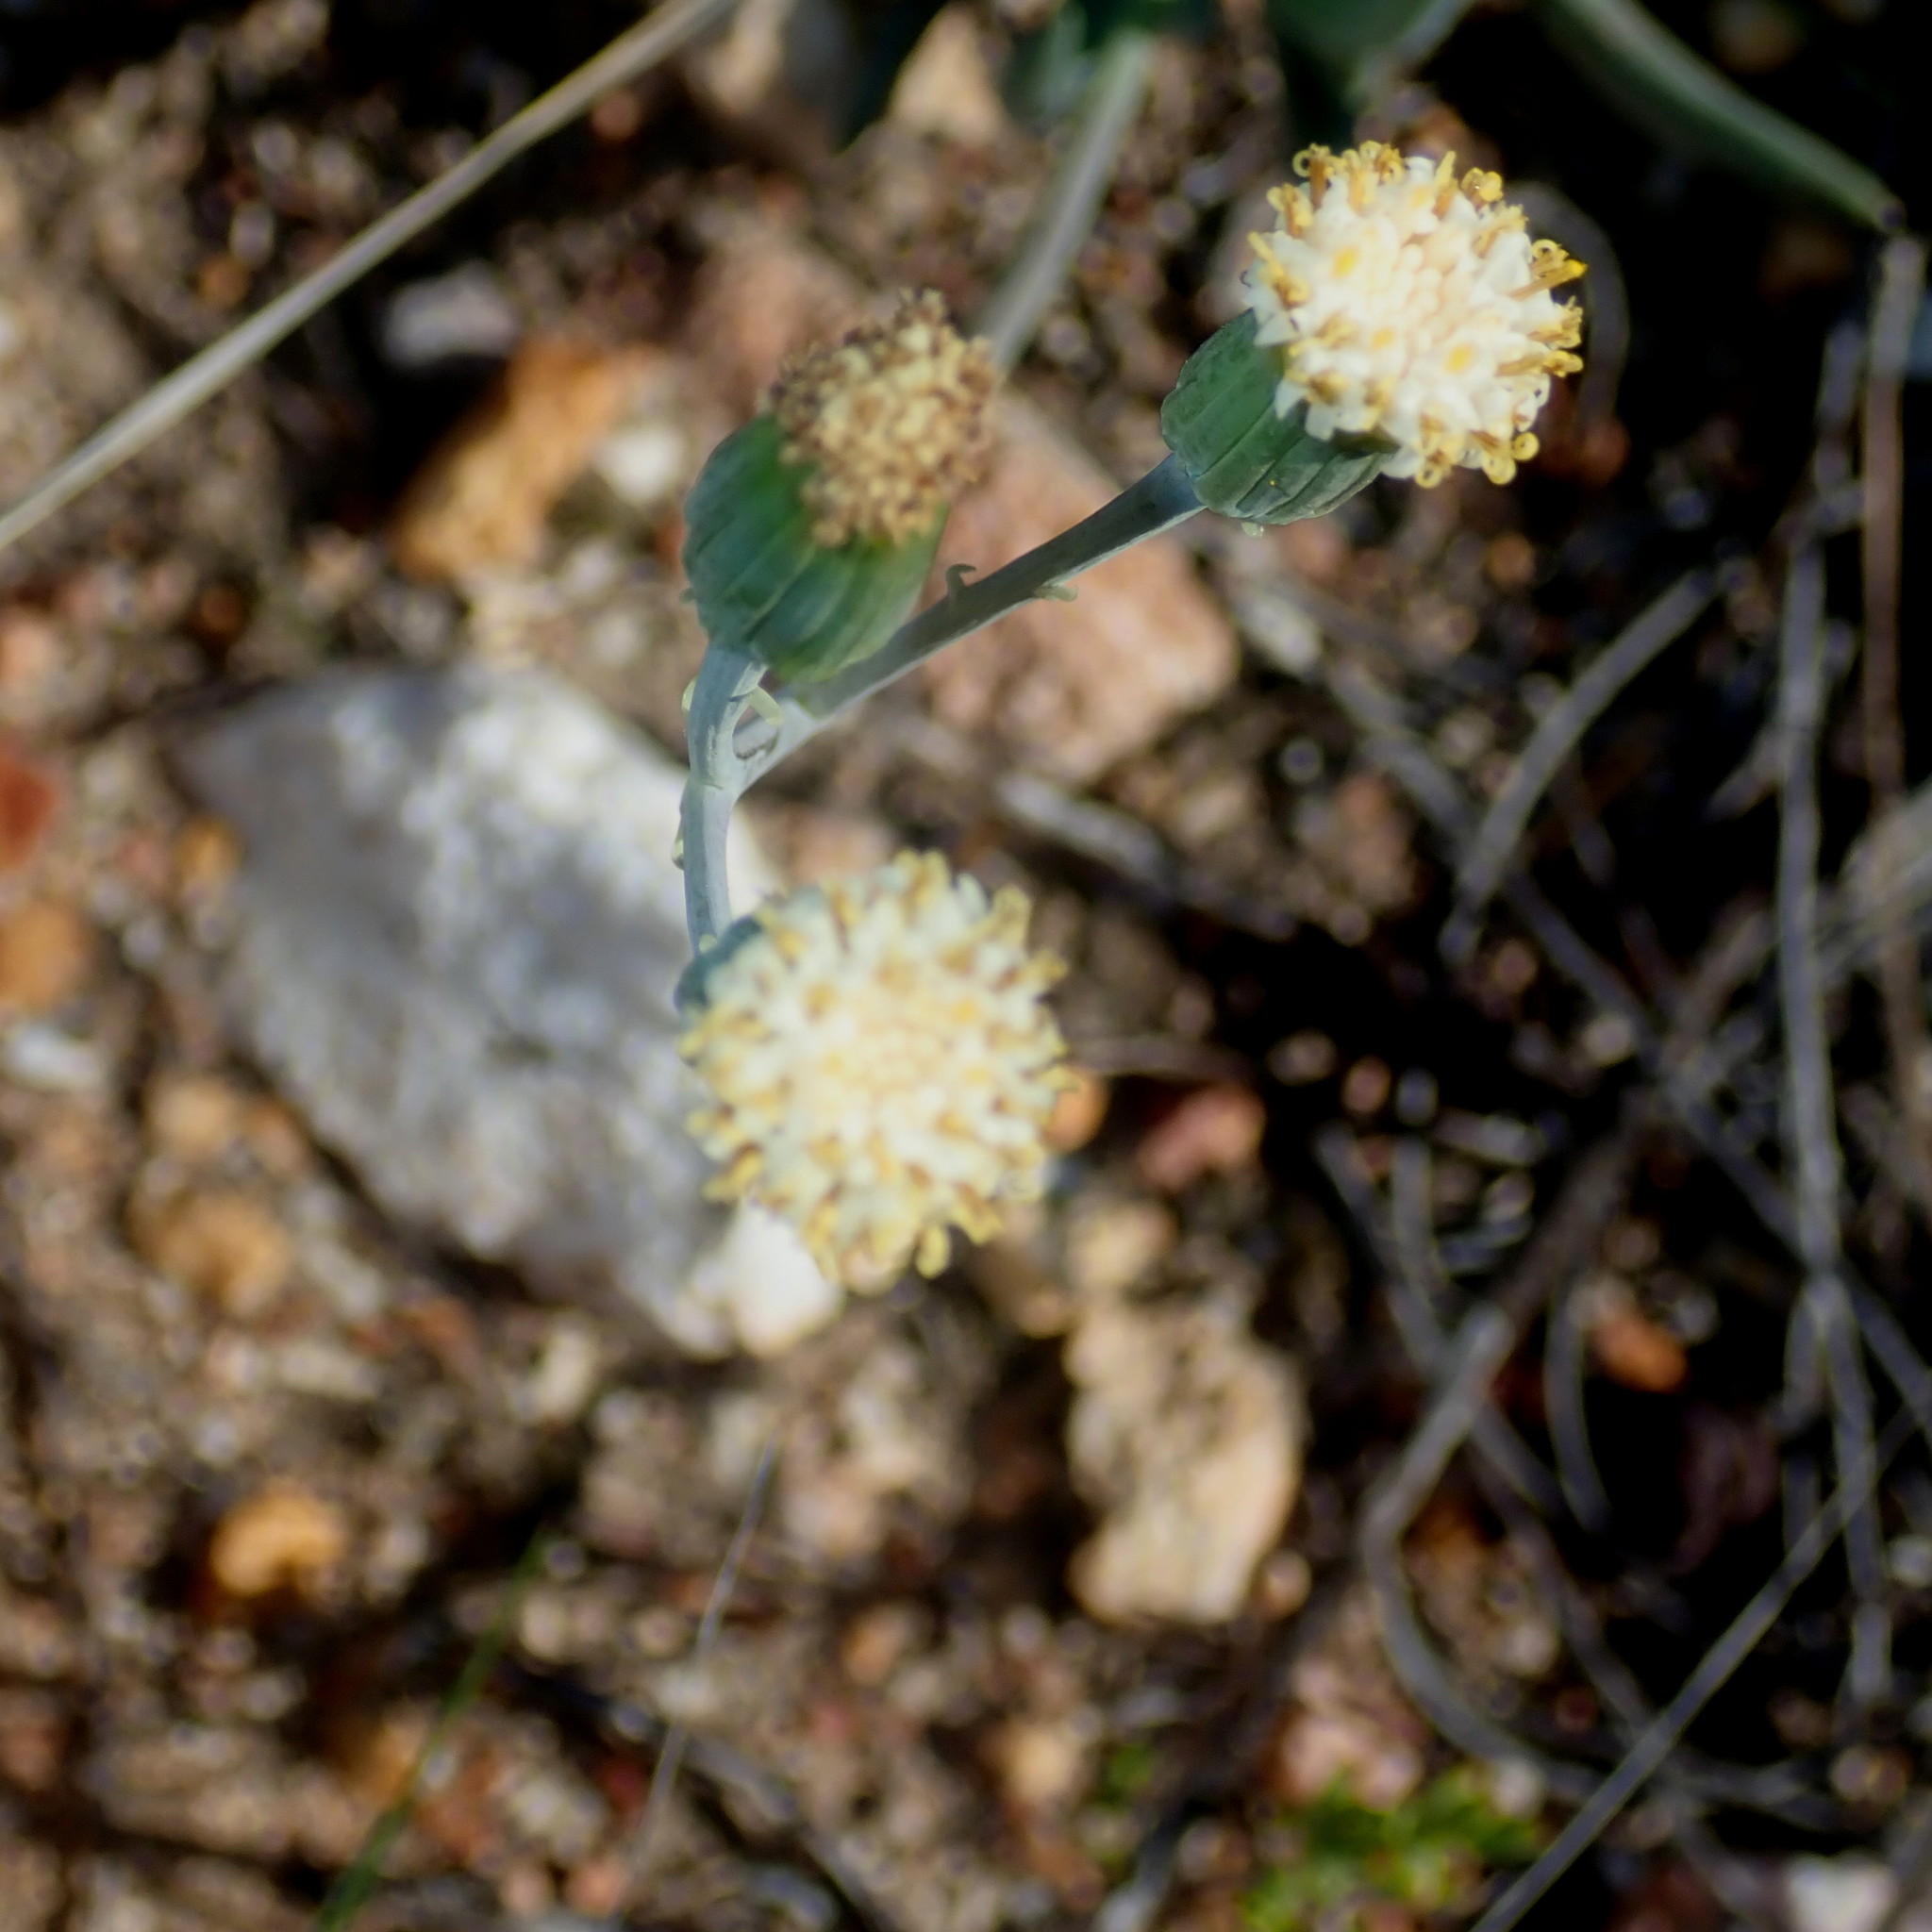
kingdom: Plantae
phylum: Tracheophyta
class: Magnoliopsida
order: Asterales
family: Asteraceae
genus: Curio
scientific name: Curio talinoides
